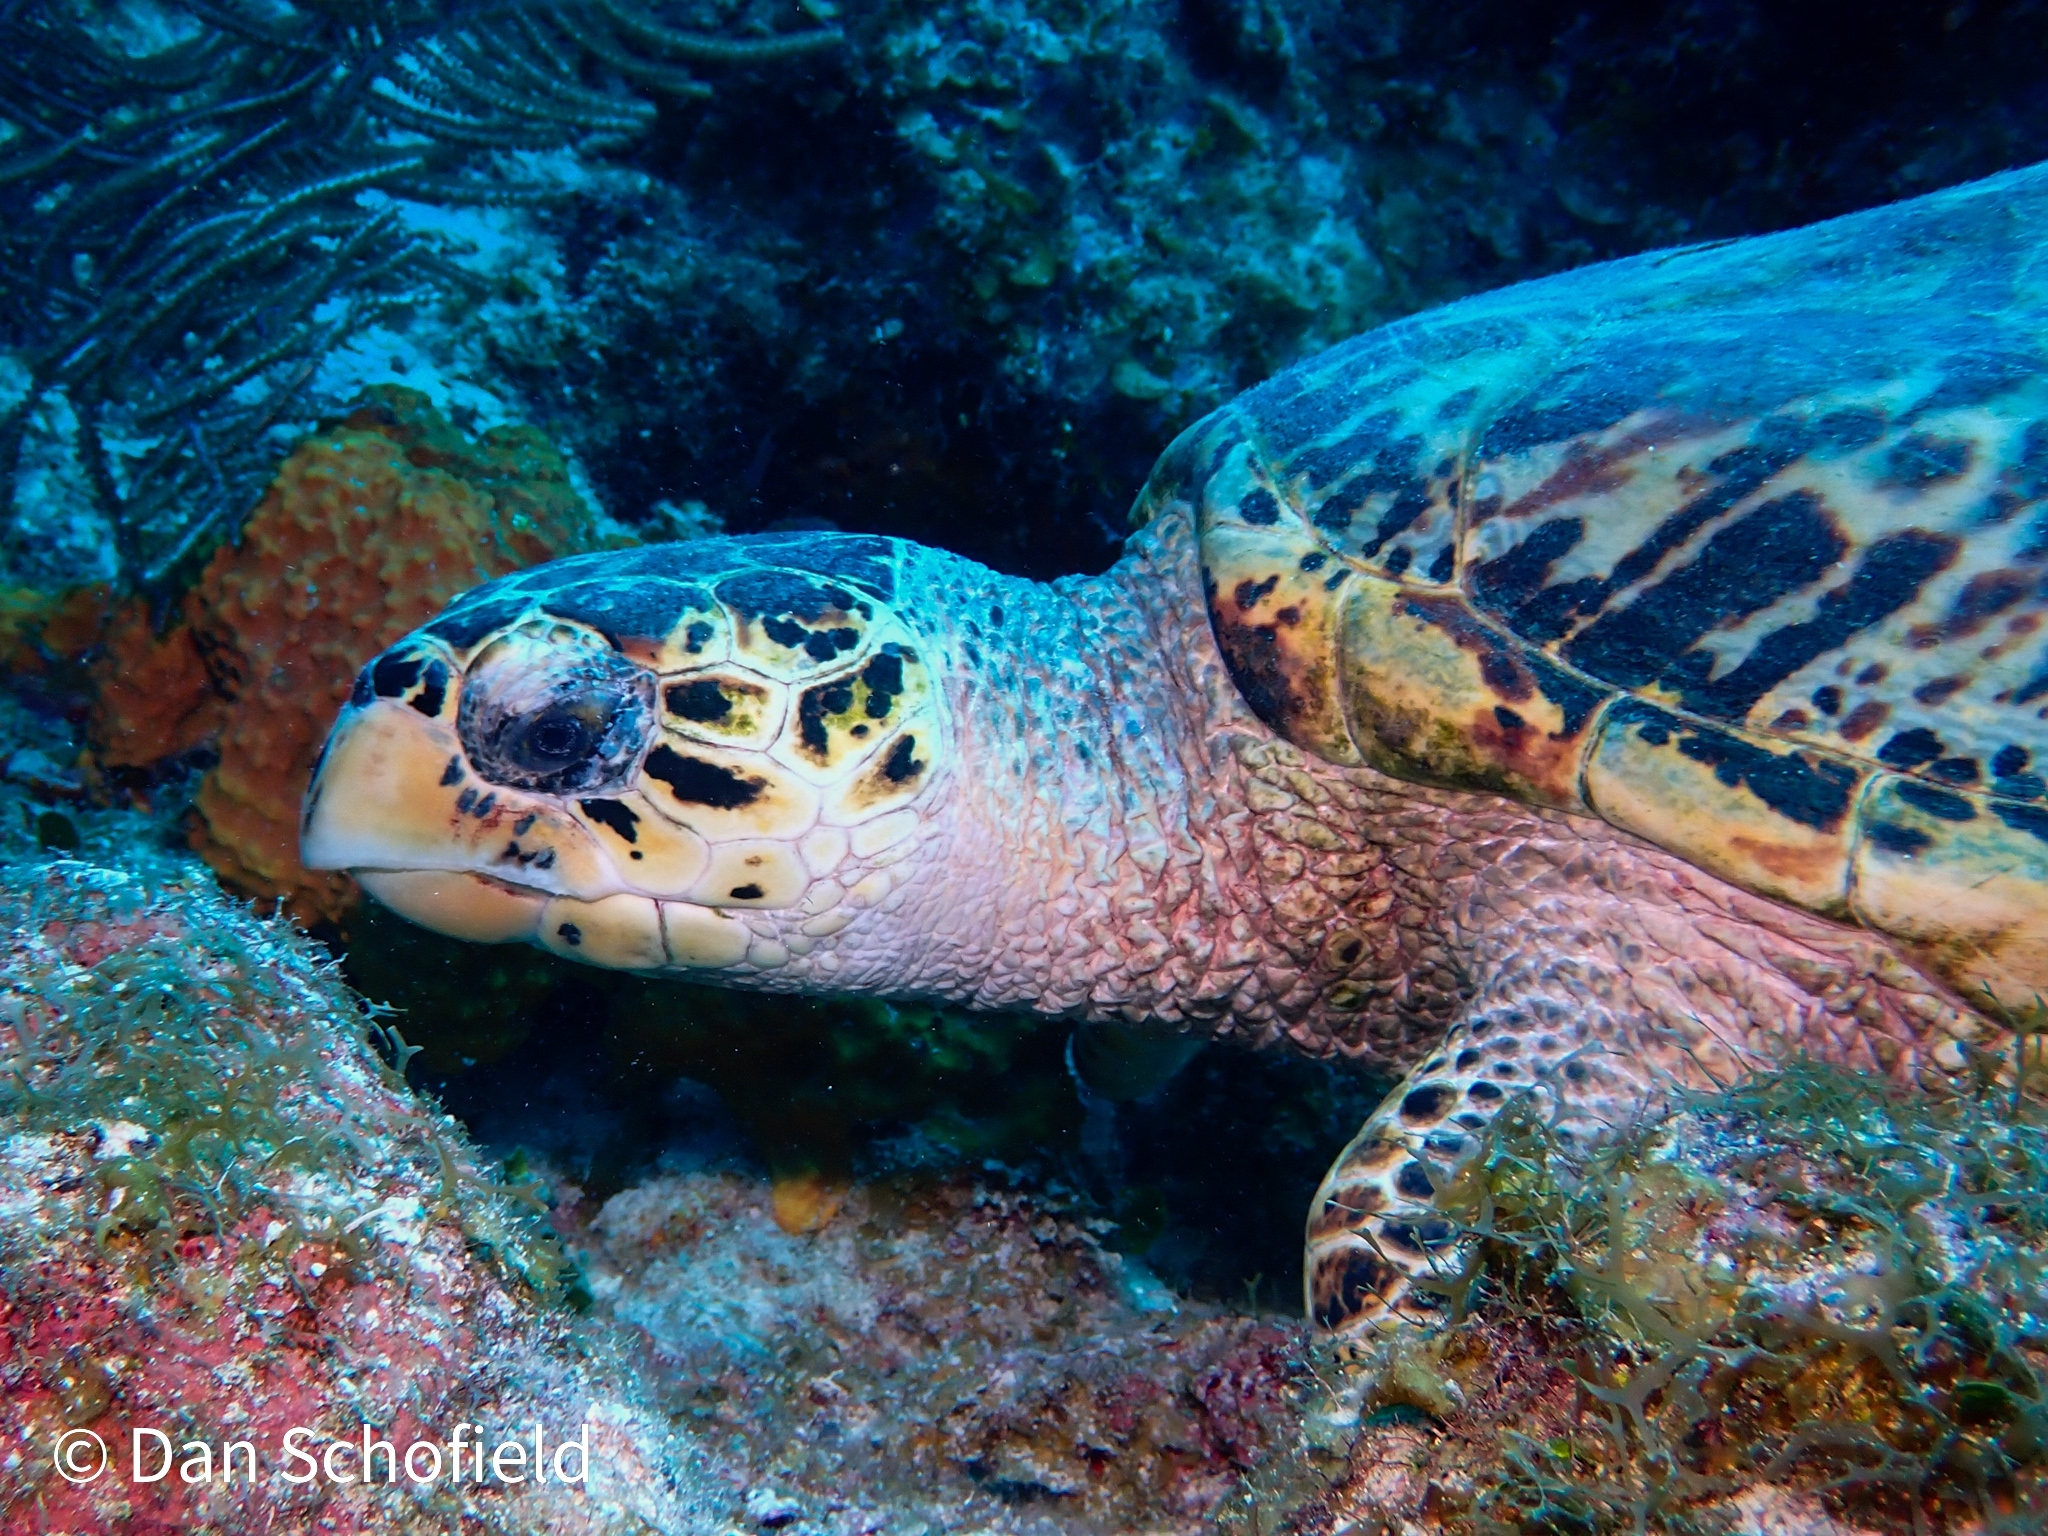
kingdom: Animalia
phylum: Chordata
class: Testudines
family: Cheloniidae
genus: Eretmochelys
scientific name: Eretmochelys imbricata
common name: Hawksbill turtle
